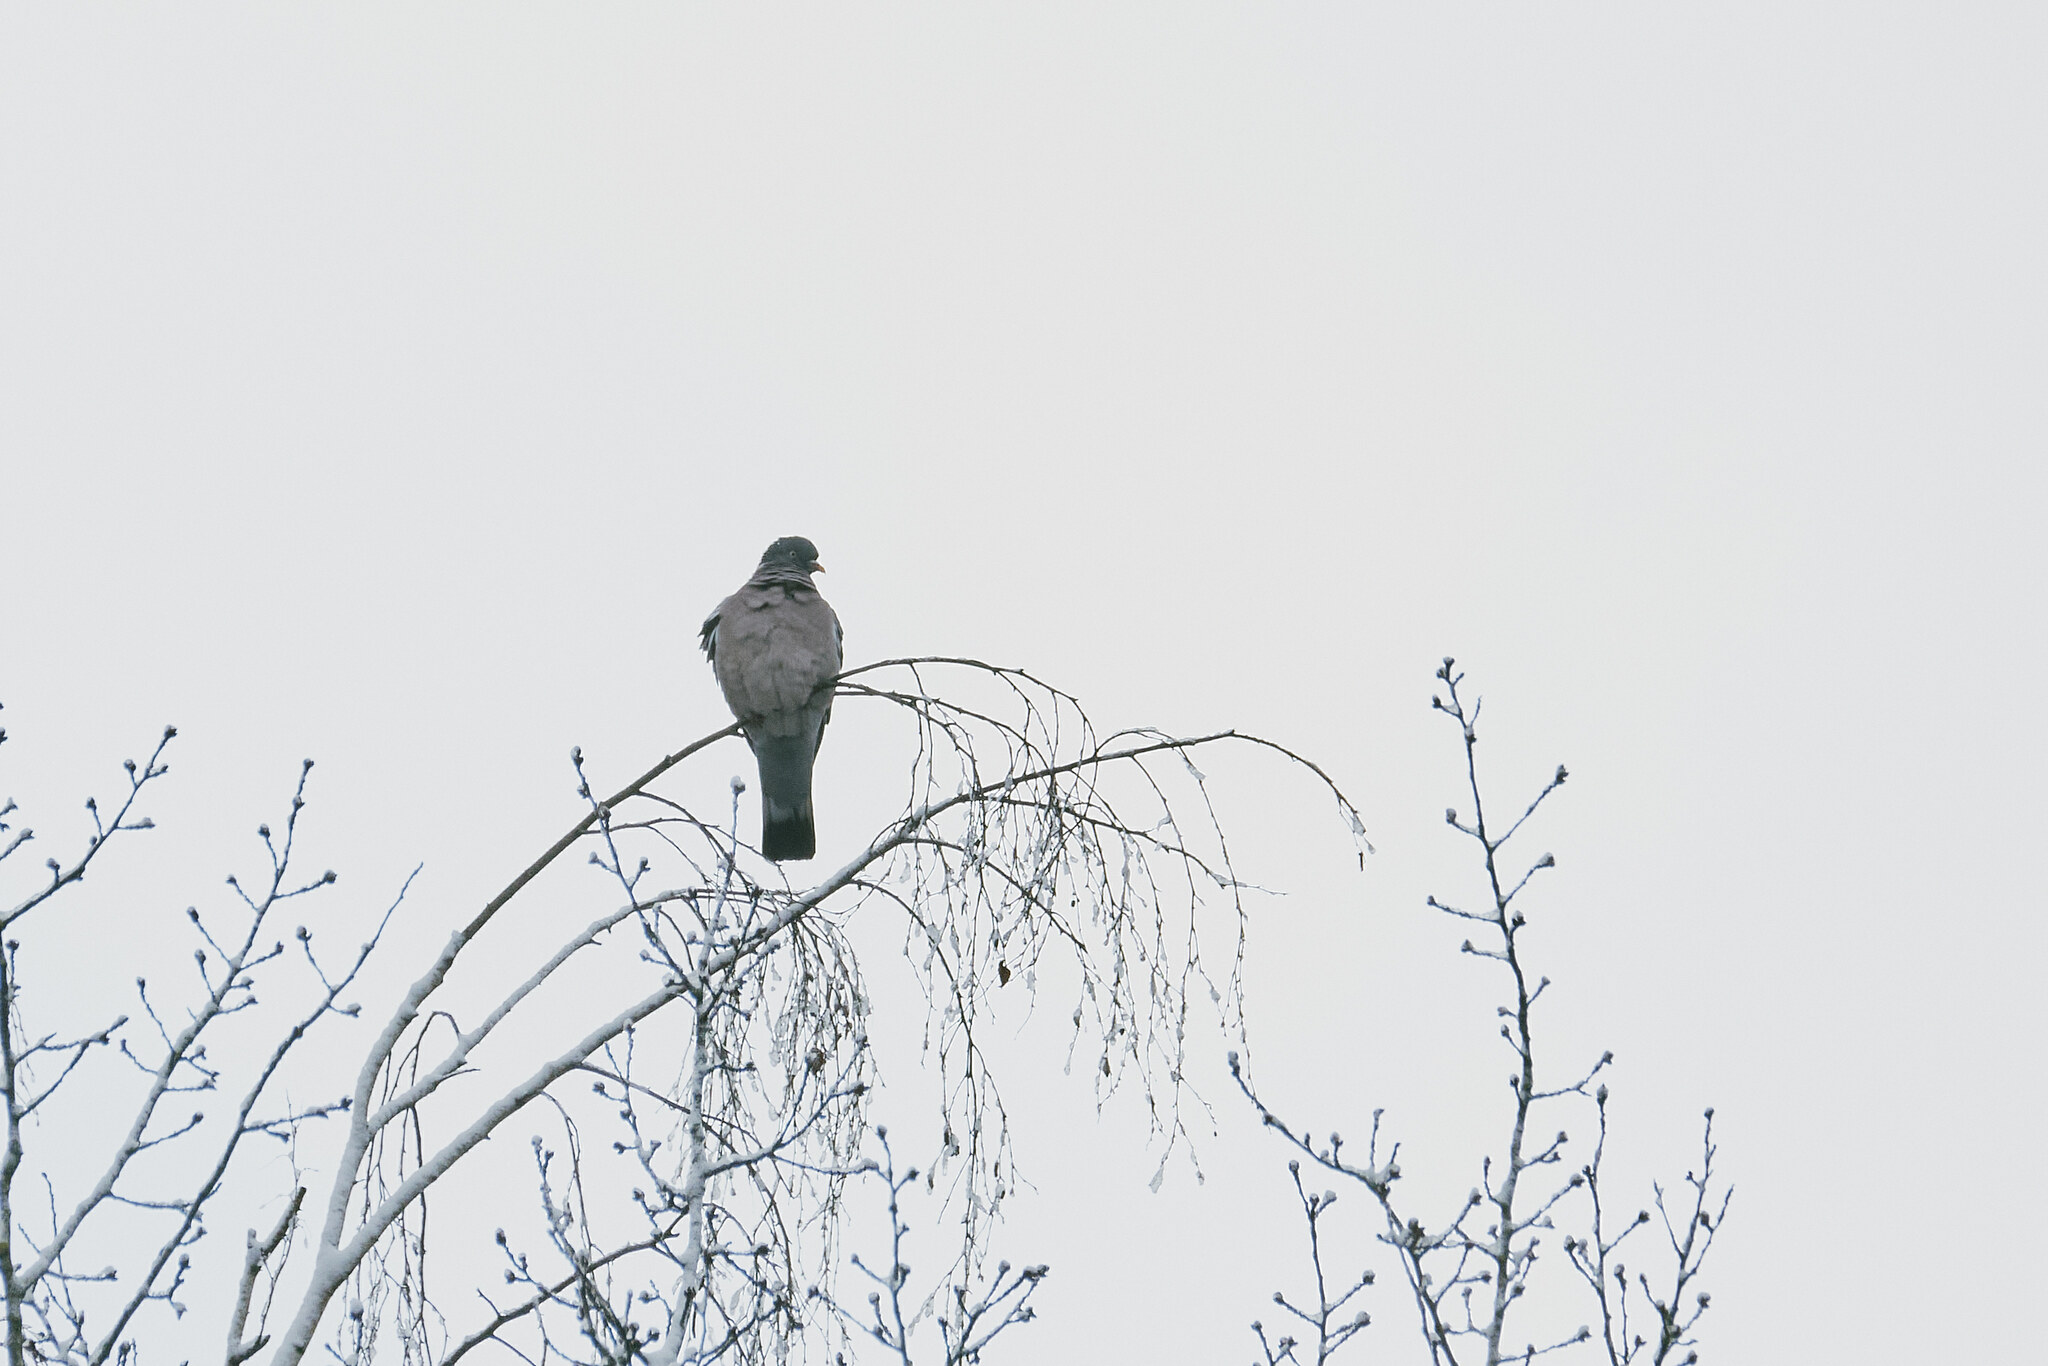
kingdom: Animalia
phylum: Chordata
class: Aves
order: Columbiformes
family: Columbidae
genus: Columba
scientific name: Columba palumbus
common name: Common wood pigeon
